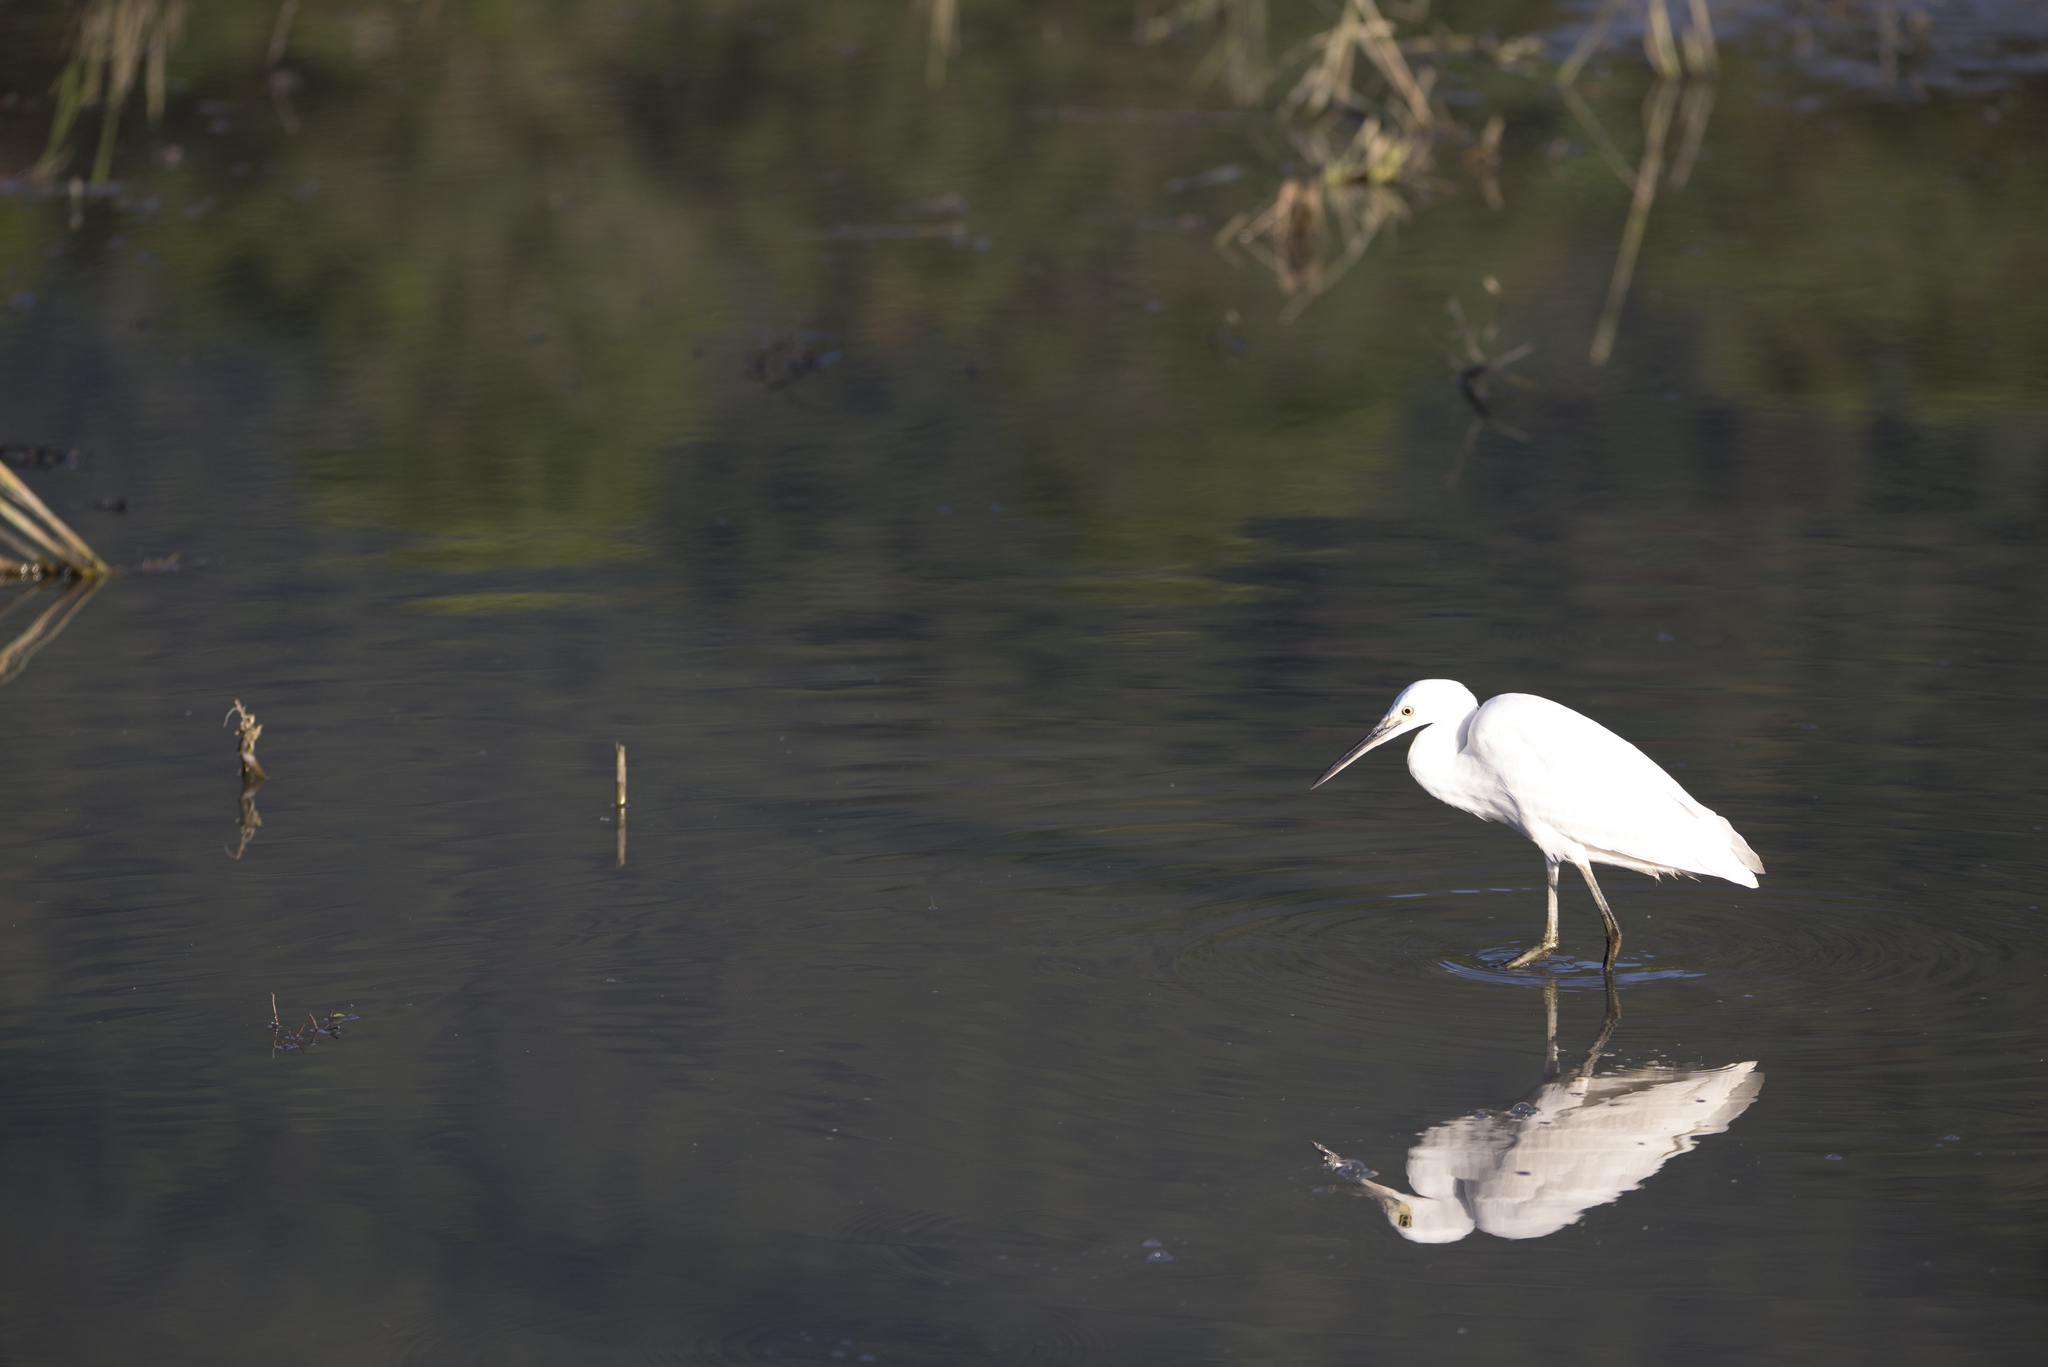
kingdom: Animalia
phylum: Chordata
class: Aves
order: Pelecaniformes
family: Ardeidae
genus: Egretta
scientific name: Egretta garzetta
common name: Little egret
